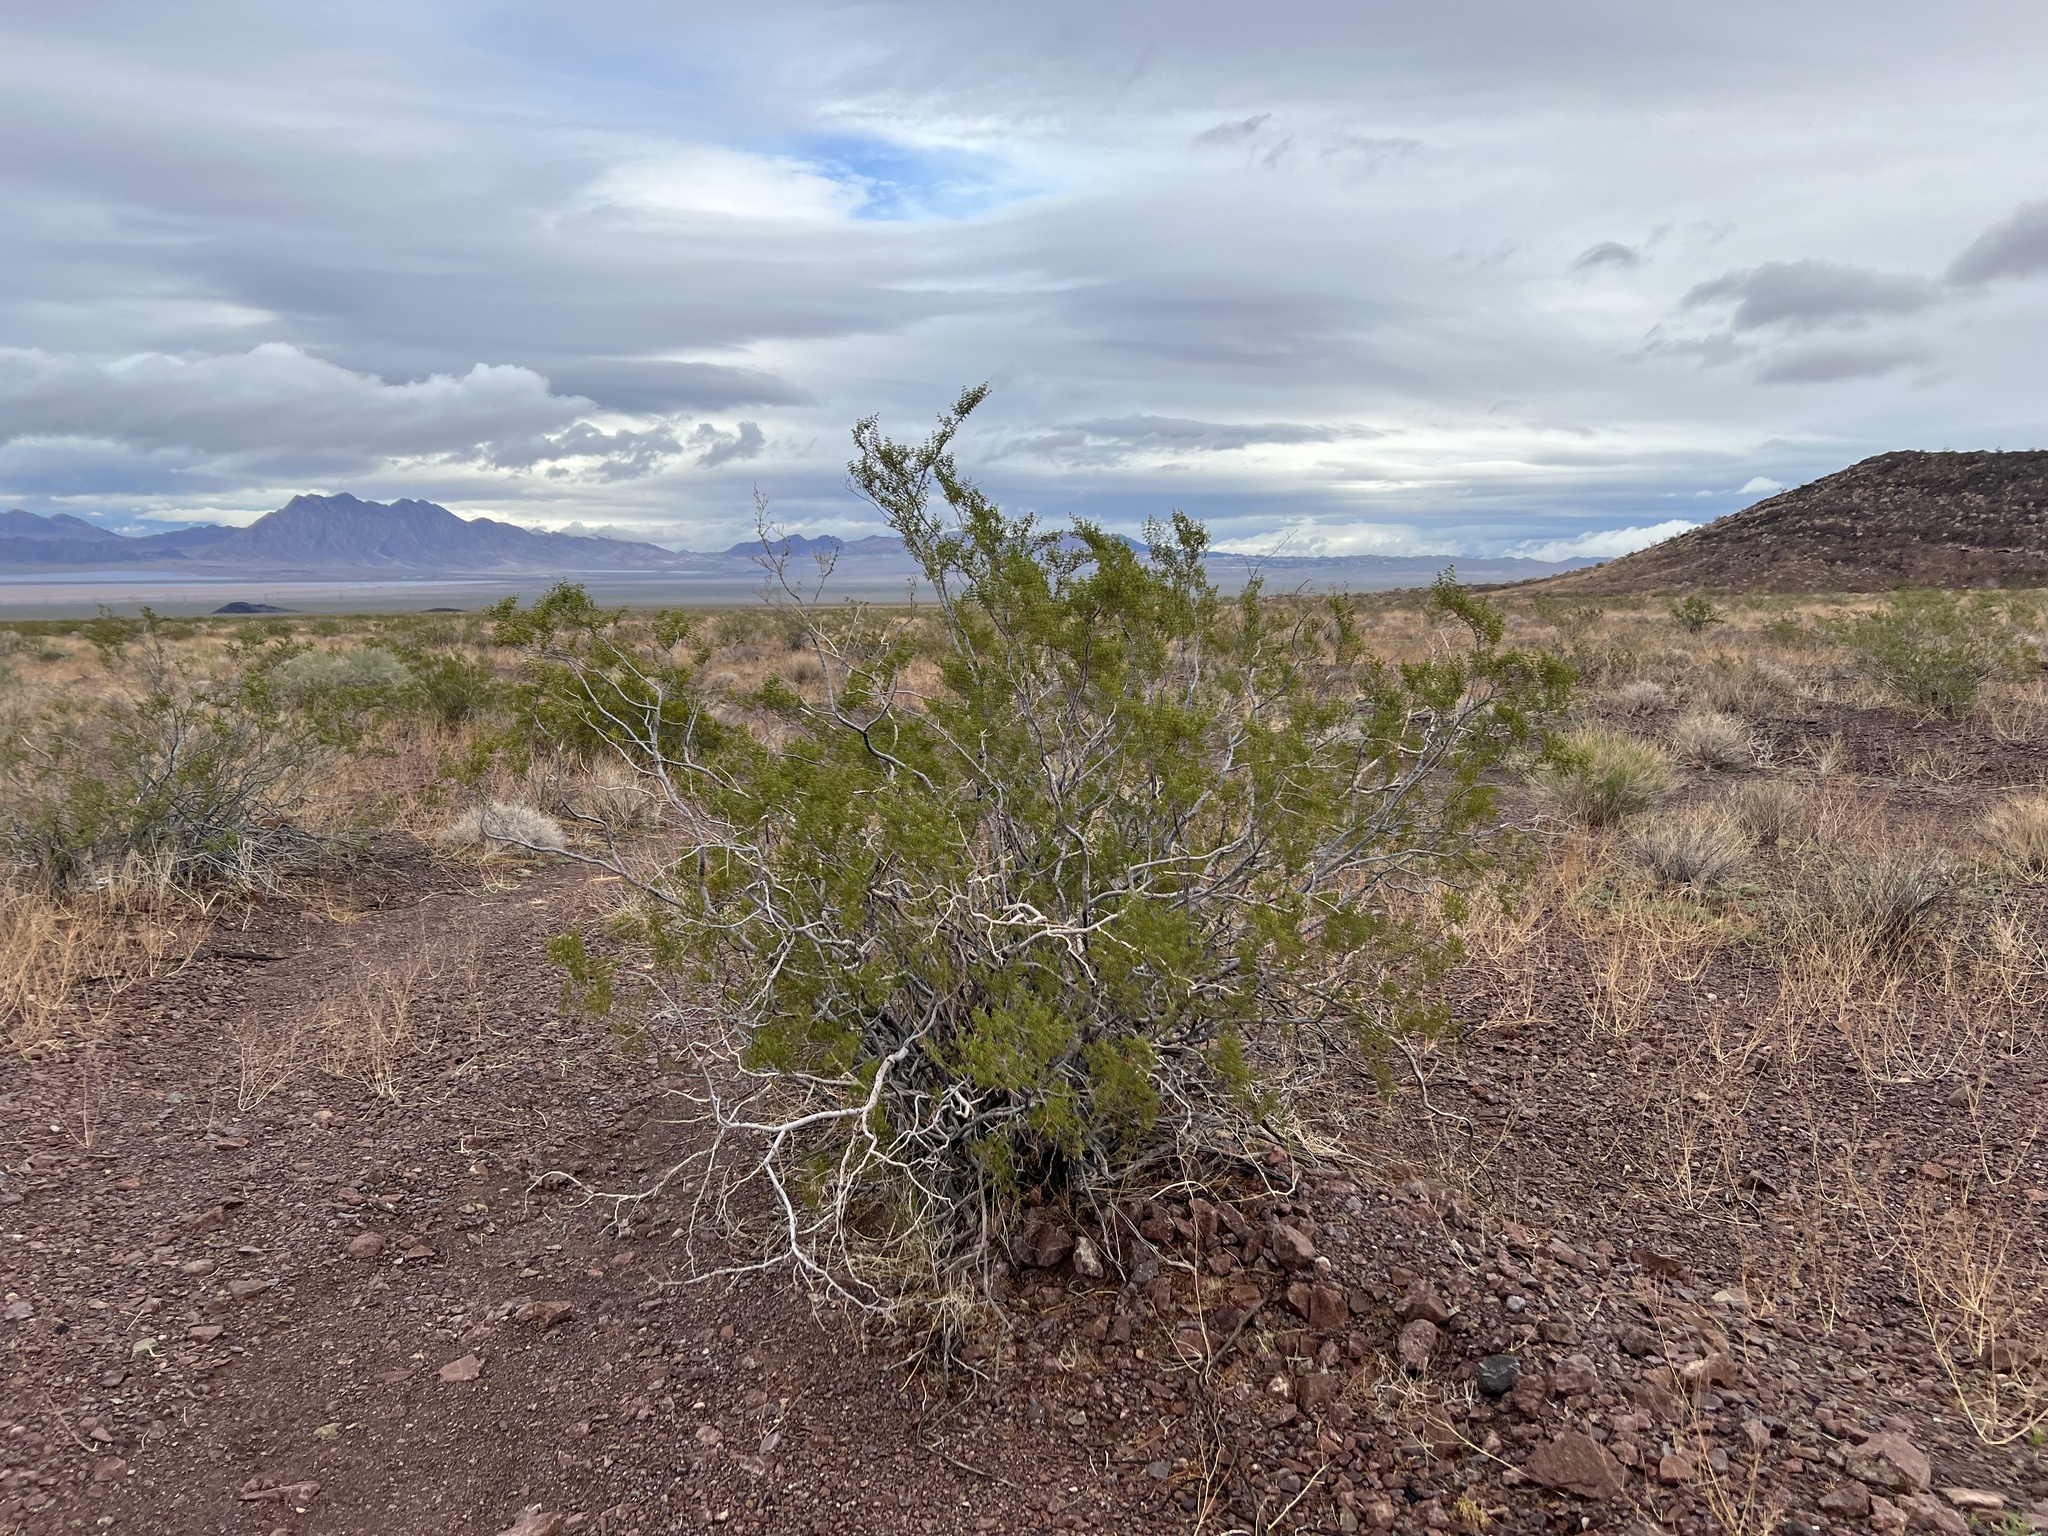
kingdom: Plantae
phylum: Tracheophyta
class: Magnoliopsida
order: Zygophyllales
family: Zygophyllaceae
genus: Larrea
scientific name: Larrea tridentata
